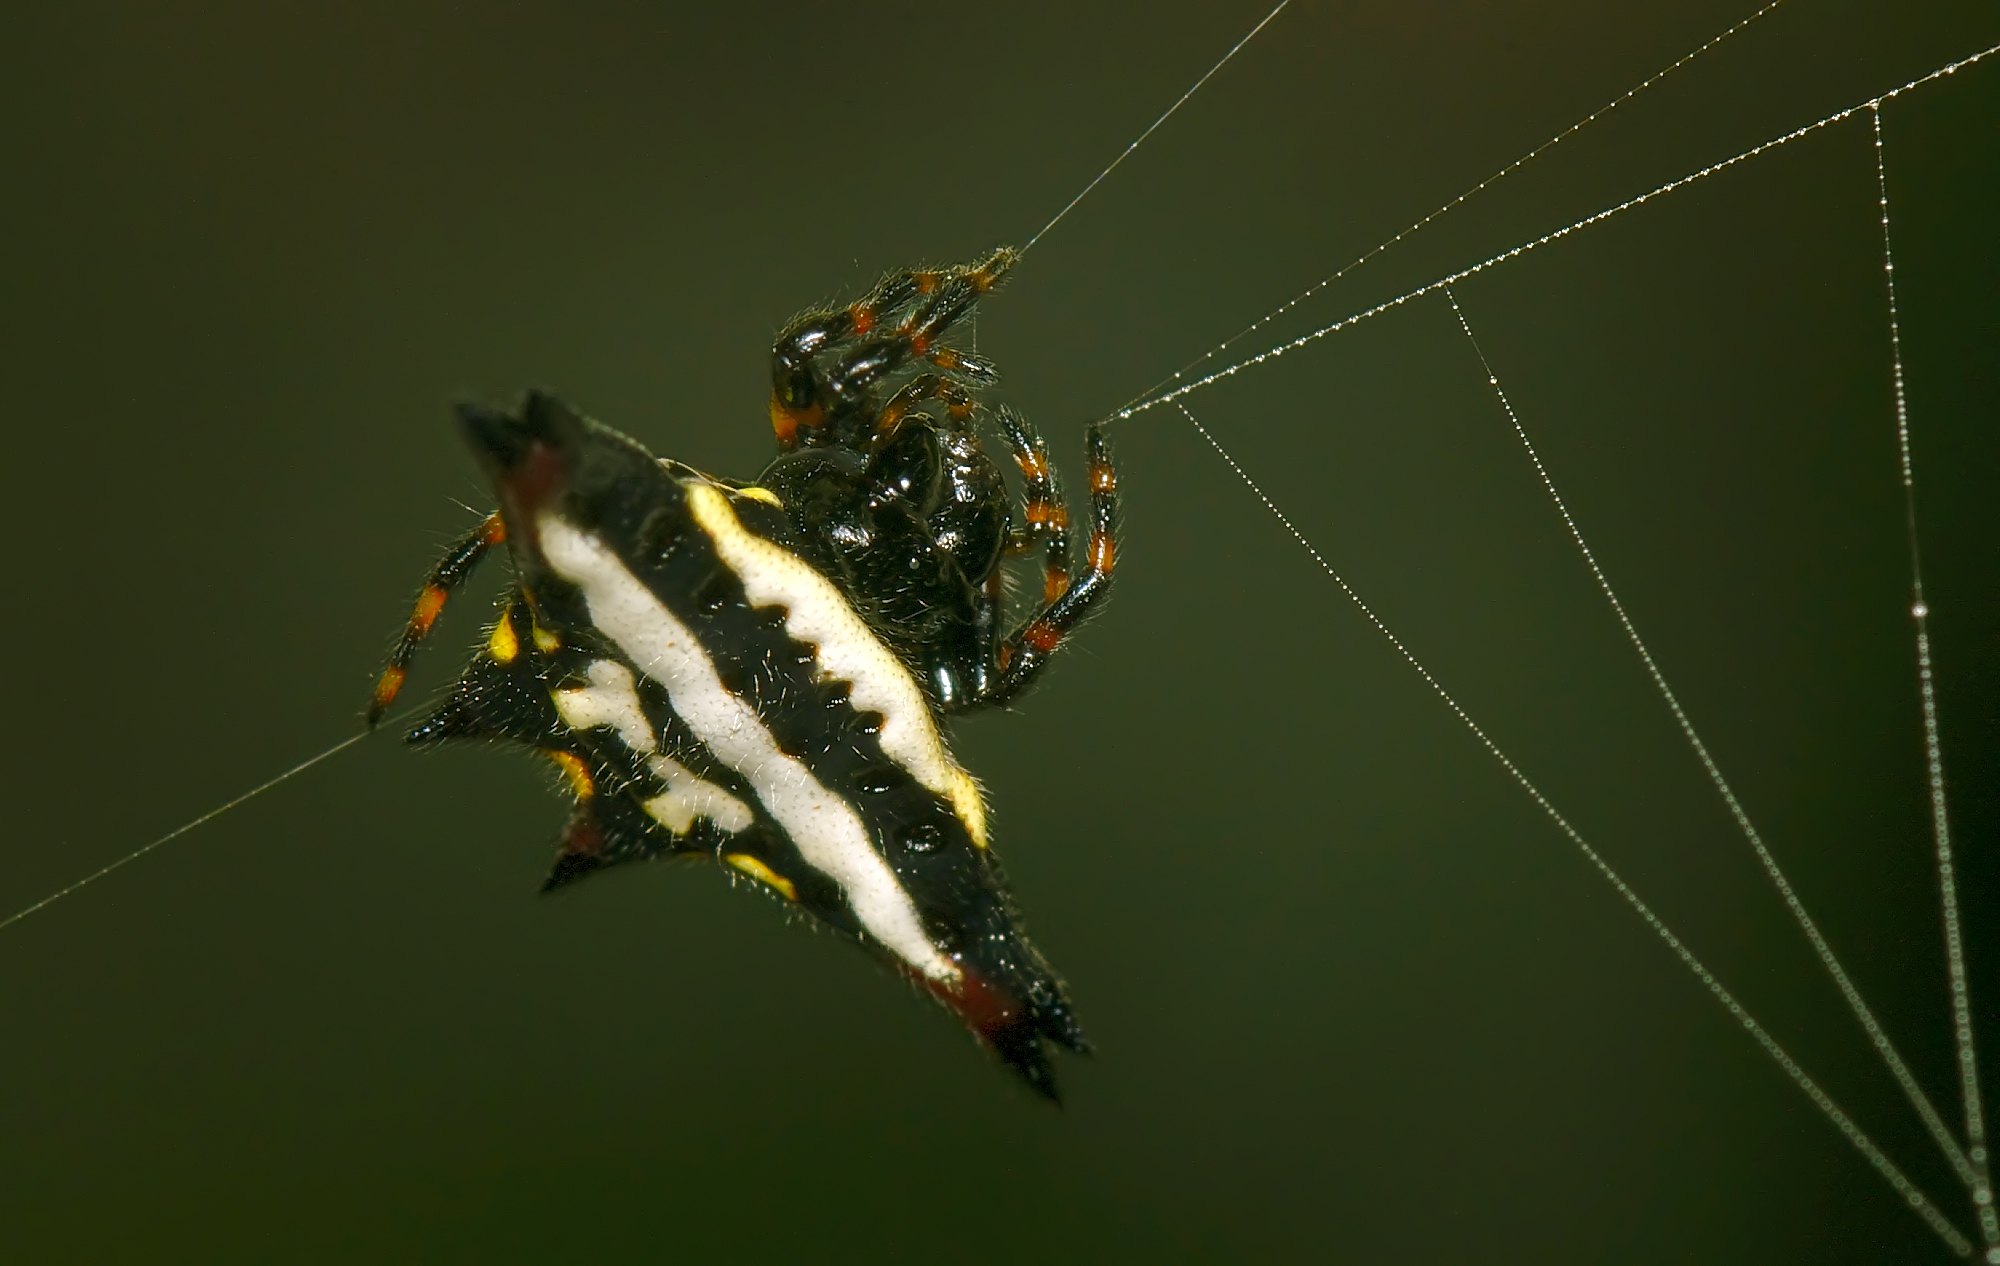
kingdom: Animalia
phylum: Arthropoda
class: Arachnida
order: Araneae
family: Araneidae
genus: Gasteracantha
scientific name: Gasteracantha geminata
